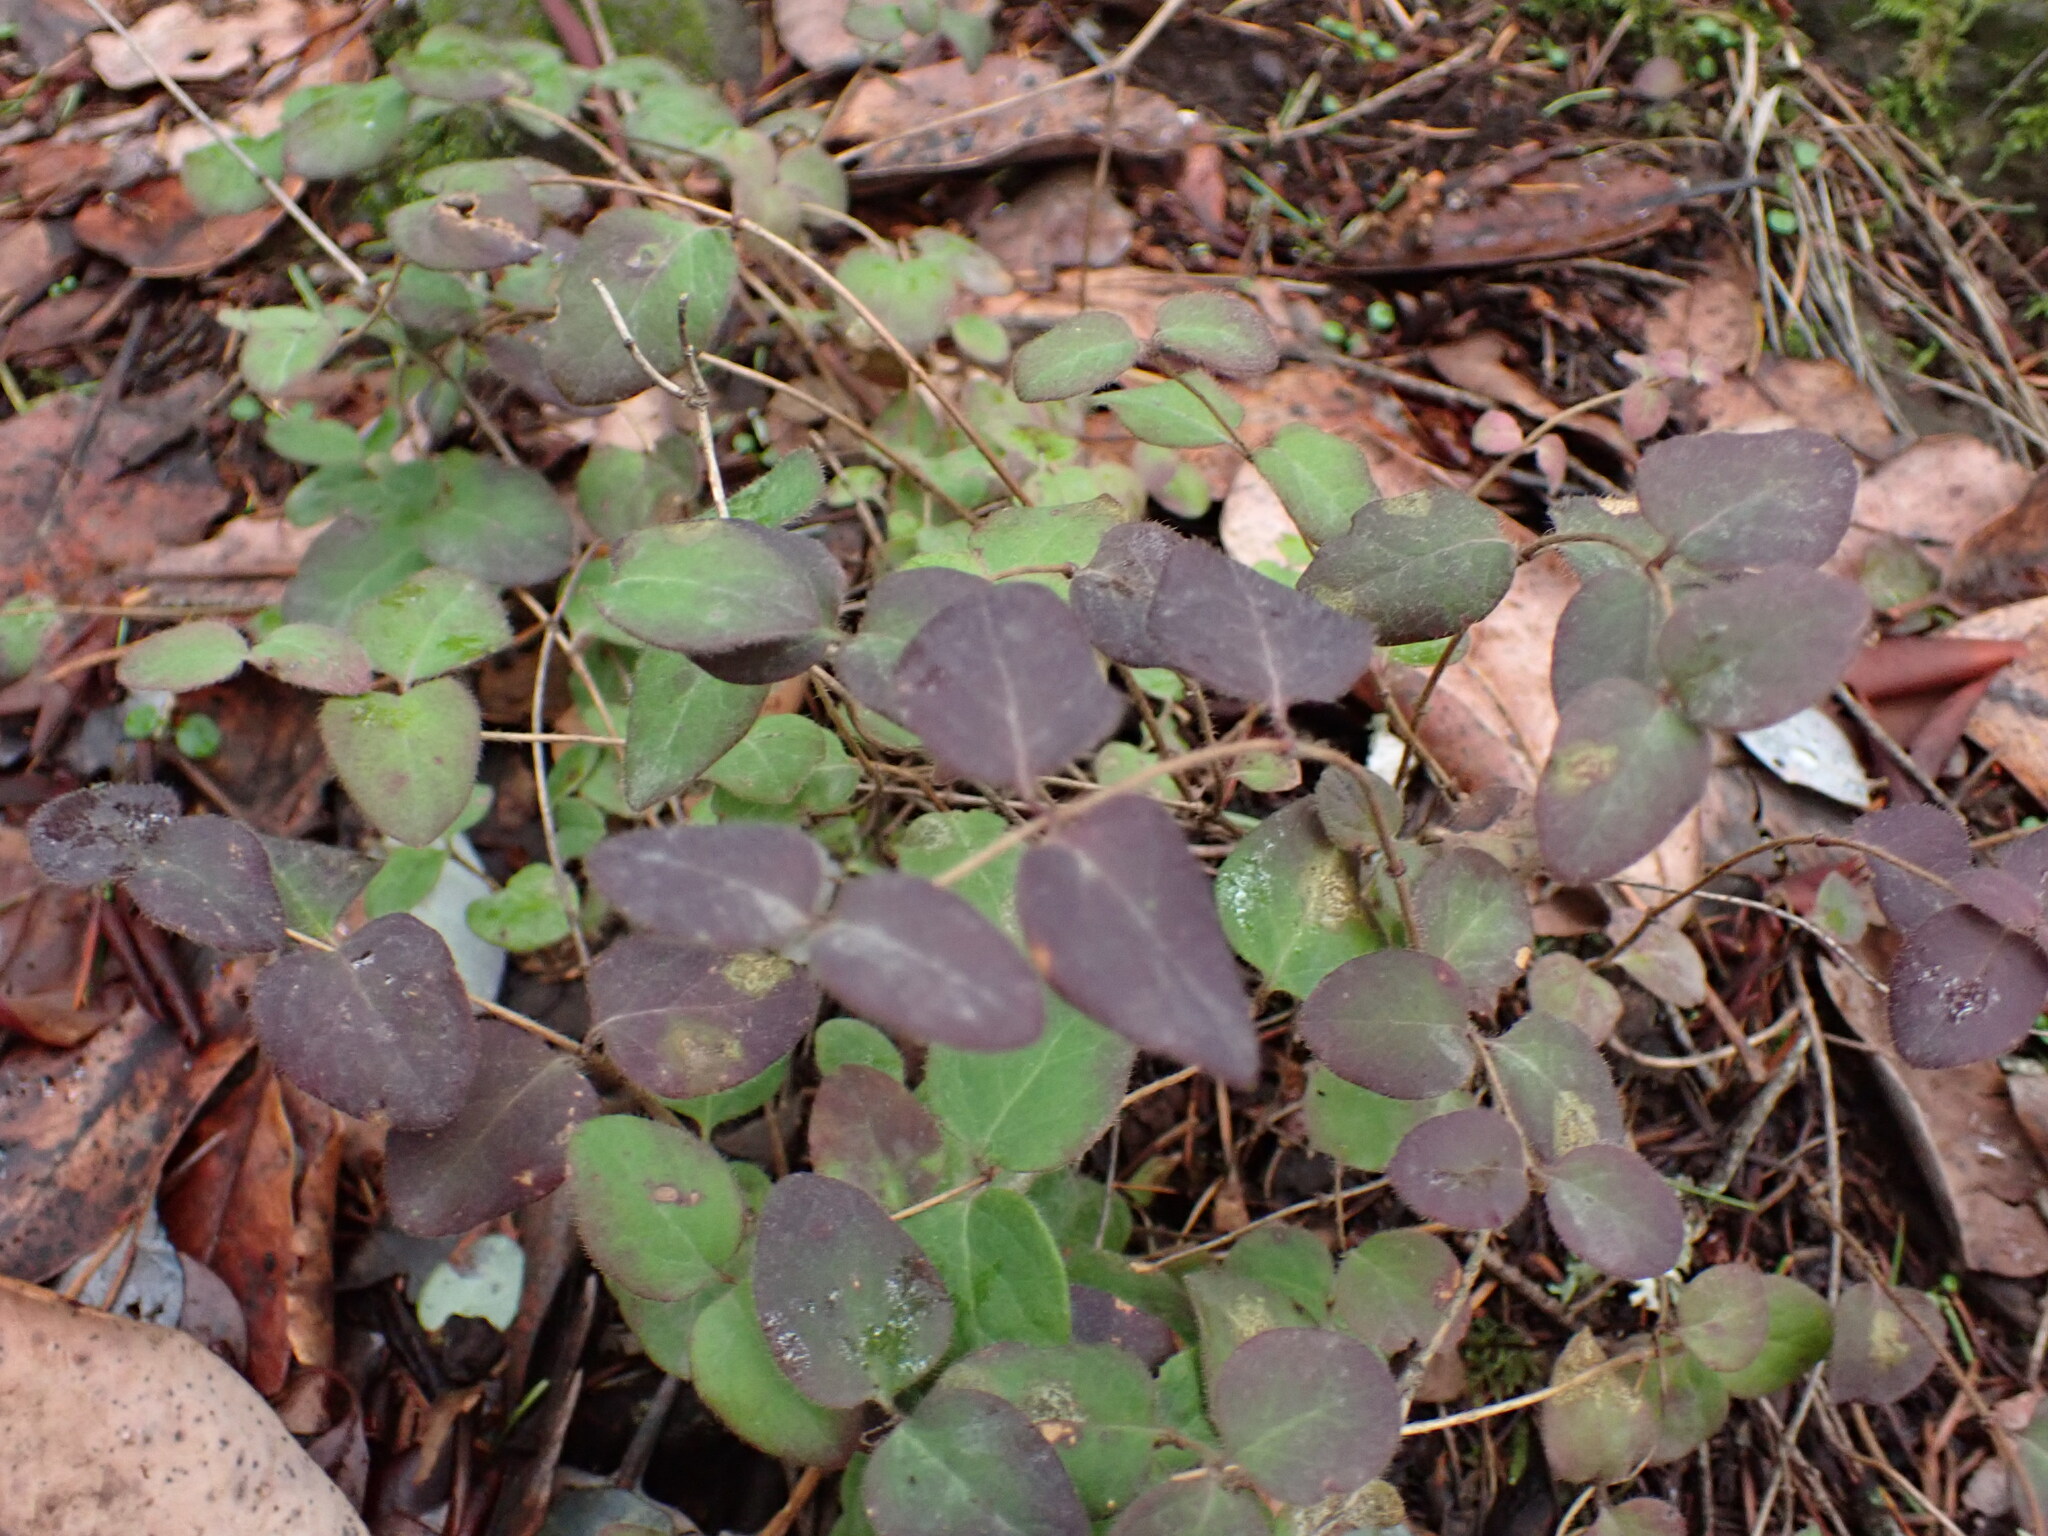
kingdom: Plantae
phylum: Tracheophyta
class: Magnoliopsida
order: Dipsacales
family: Caprifoliaceae
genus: Lonicera
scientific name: Lonicera hispidula
